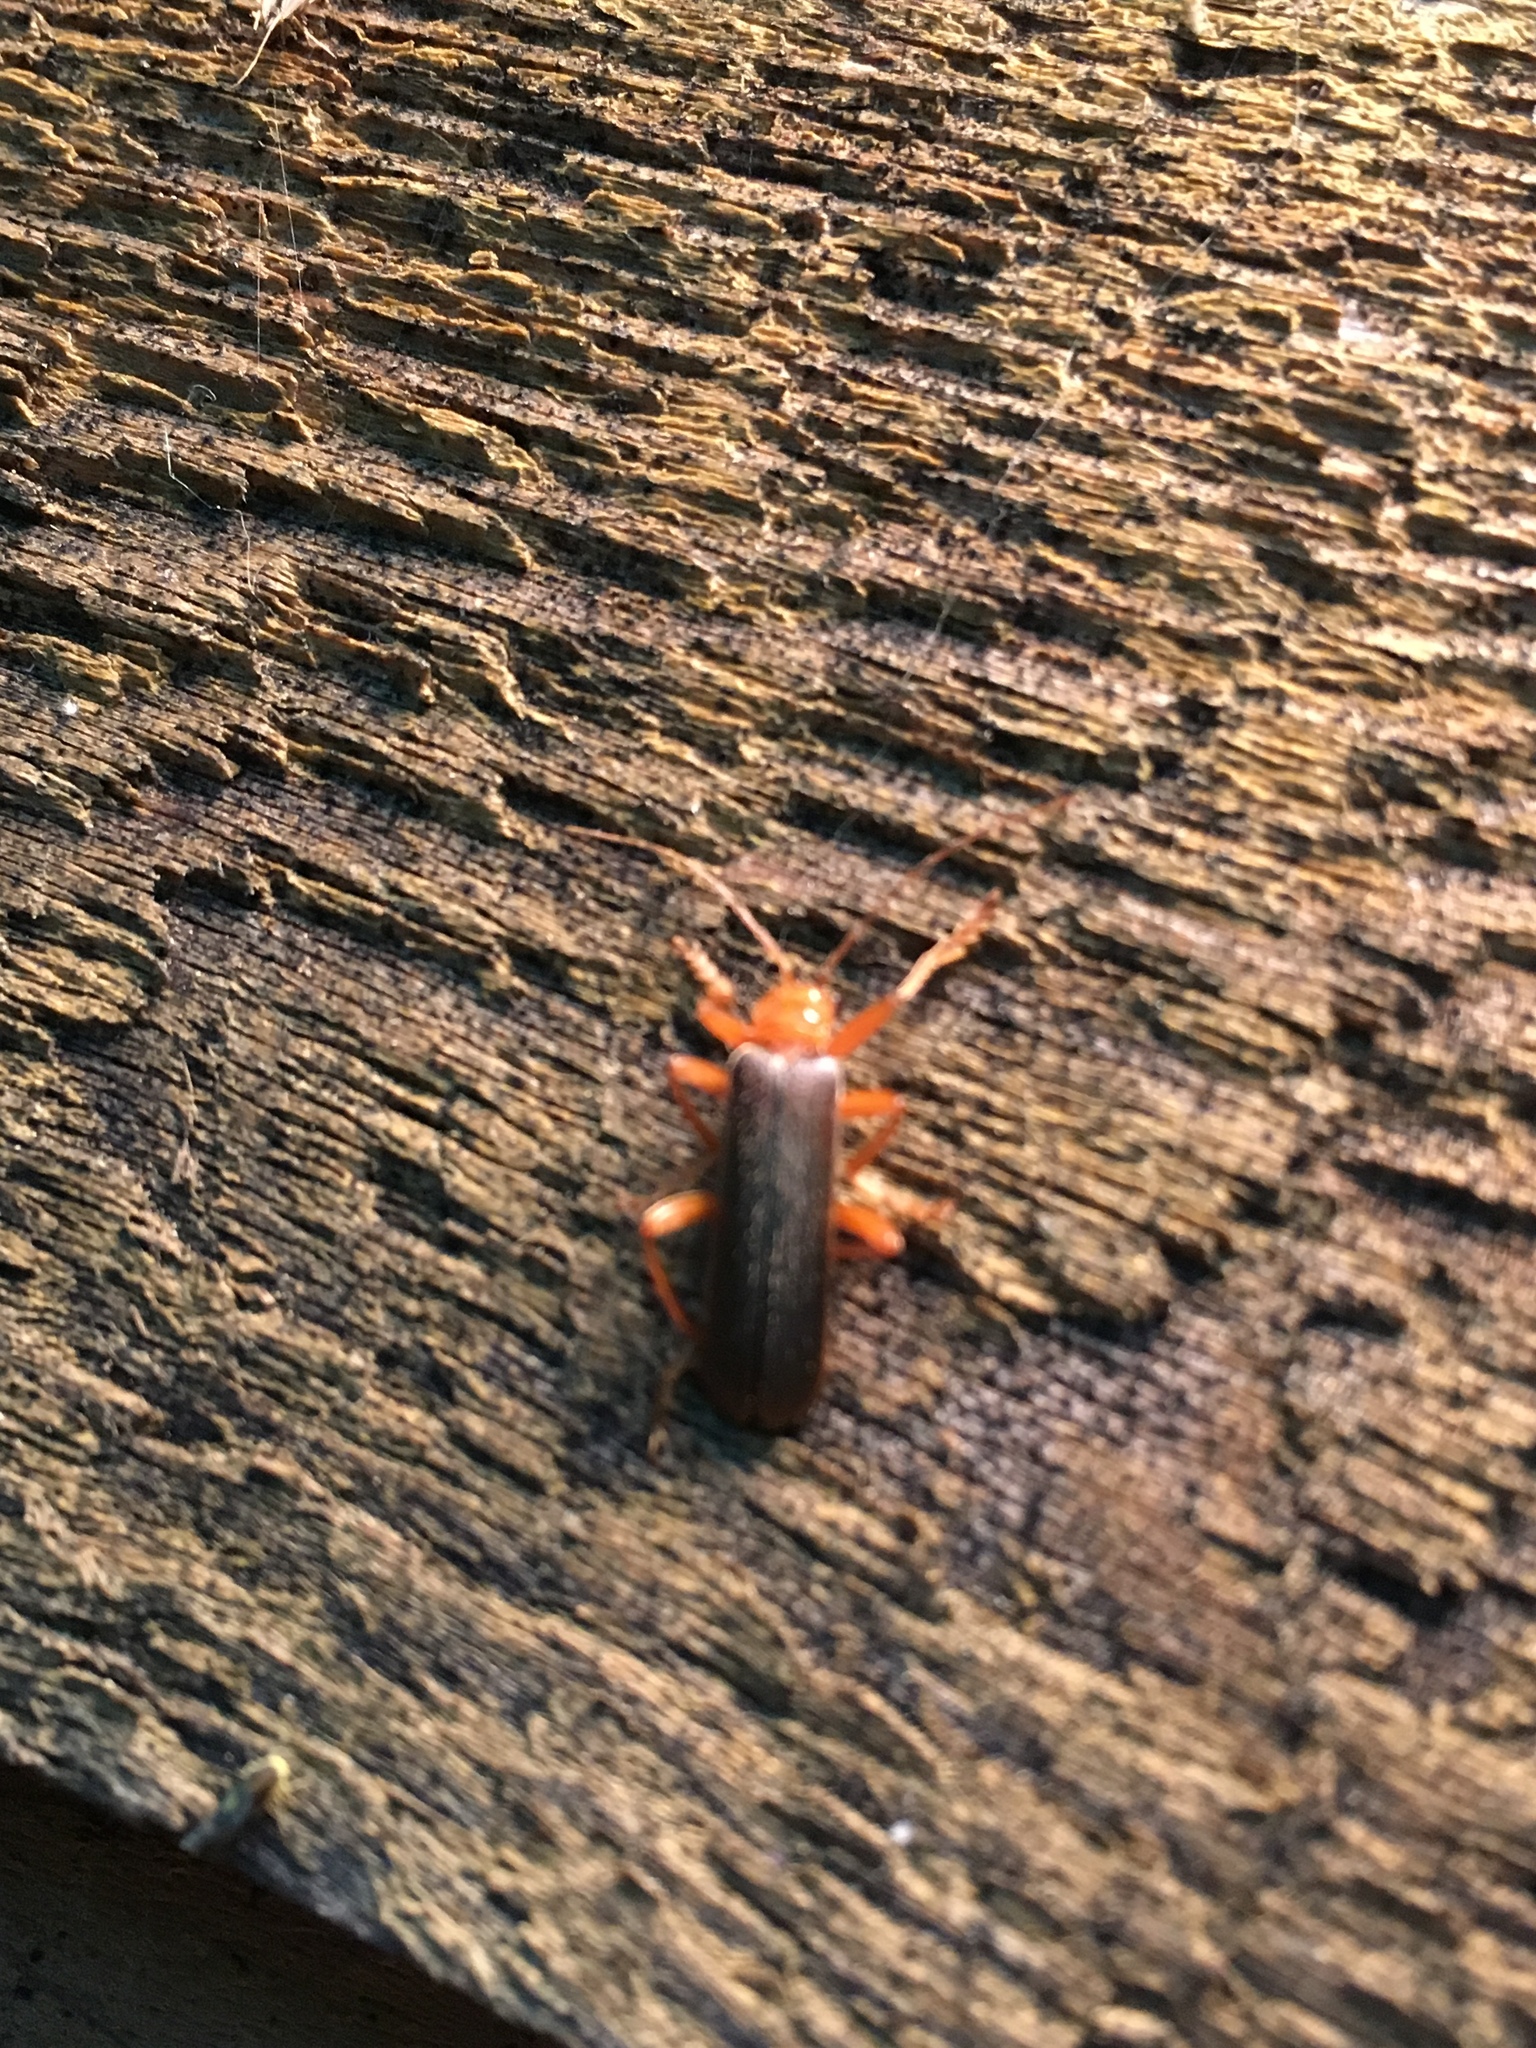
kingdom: Animalia
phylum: Arthropoda
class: Insecta
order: Coleoptera
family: Cantharidae
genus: Pacificanthia
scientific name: Pacificanthia rotundicollis
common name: Brown leatherwing beetle
